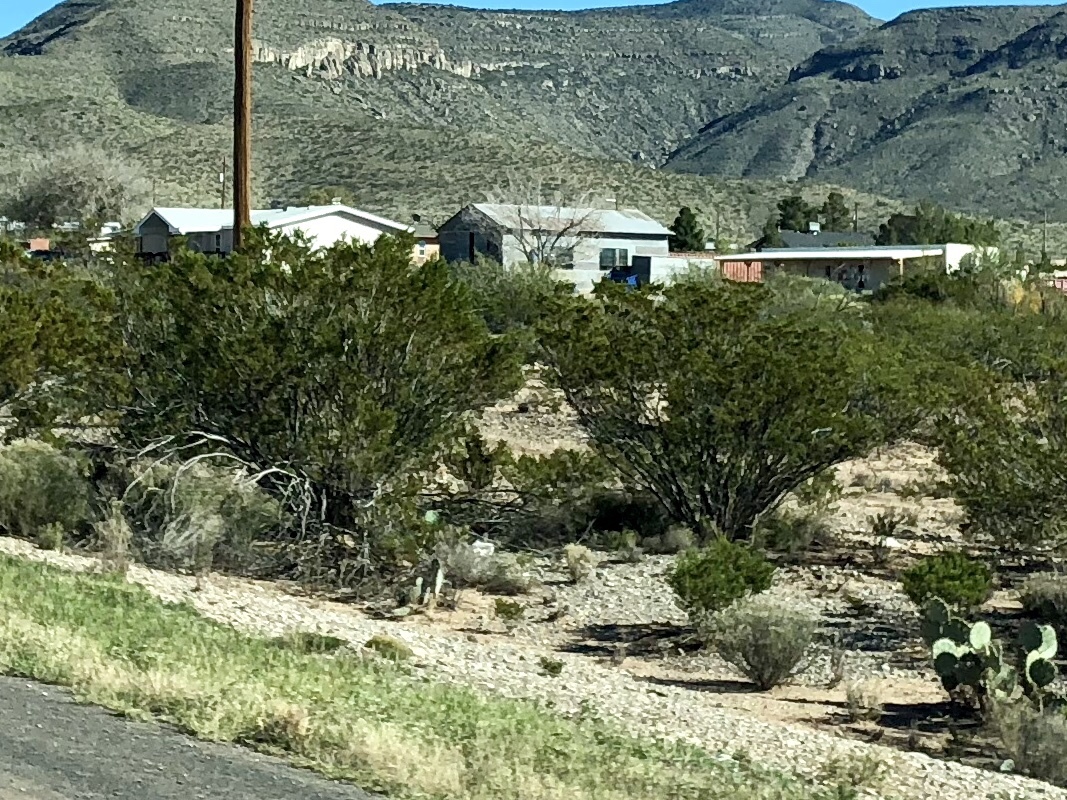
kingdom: Plantae
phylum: Tracheophyta
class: Magnoliopsida
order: Zygophyllales
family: Zygophyllaceae
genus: Larrea
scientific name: Larrea tridentata
